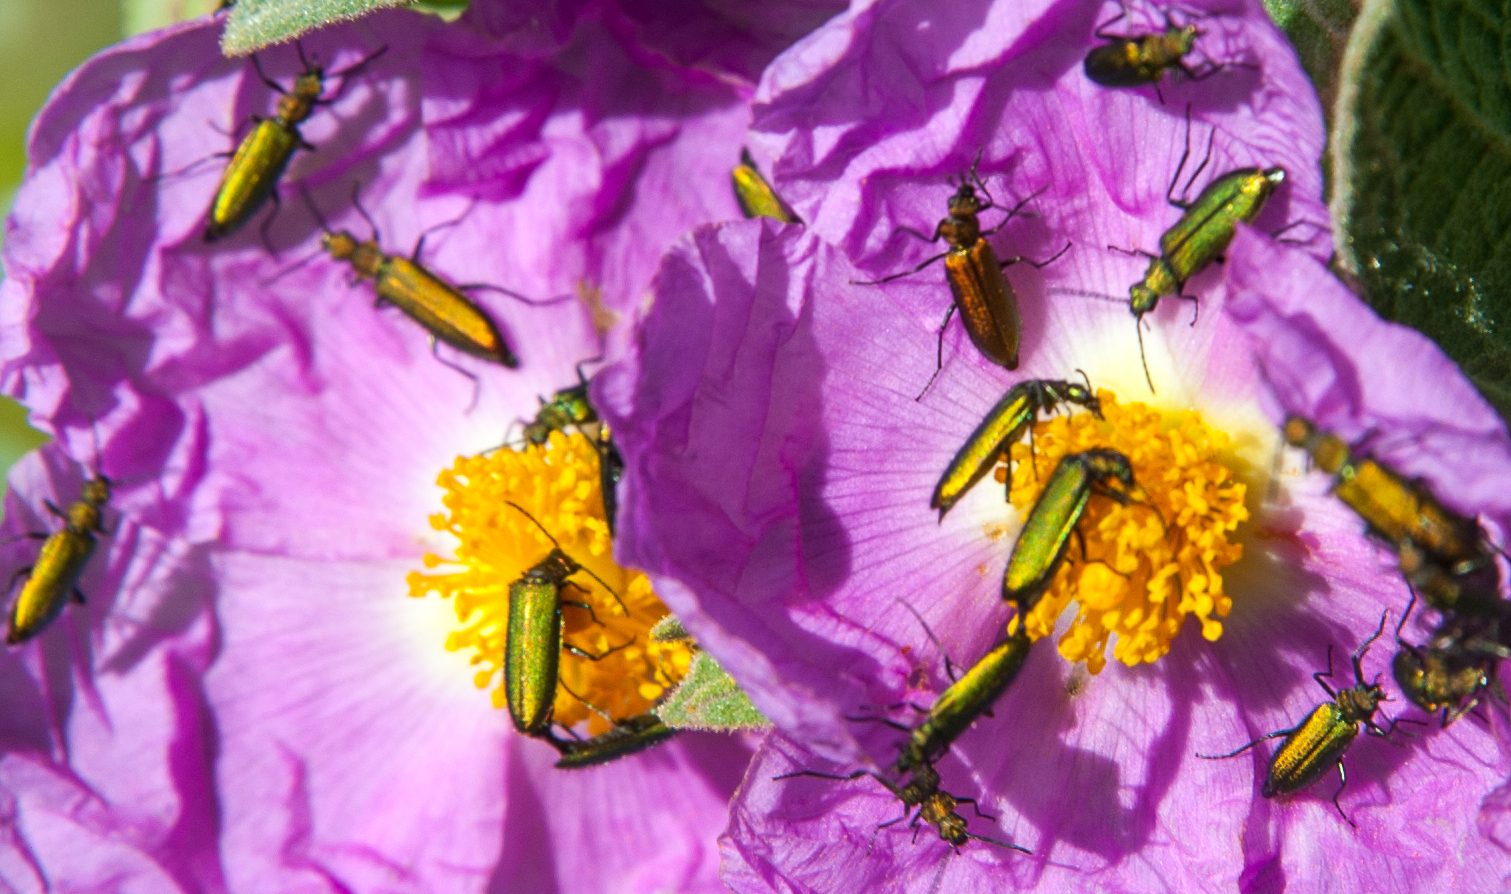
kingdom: Animalia
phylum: Arthropoda
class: Insecta
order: Coleoptera
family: Stenotrachelidae
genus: Stenotrachelus
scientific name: Stenotrachelus aeneus
